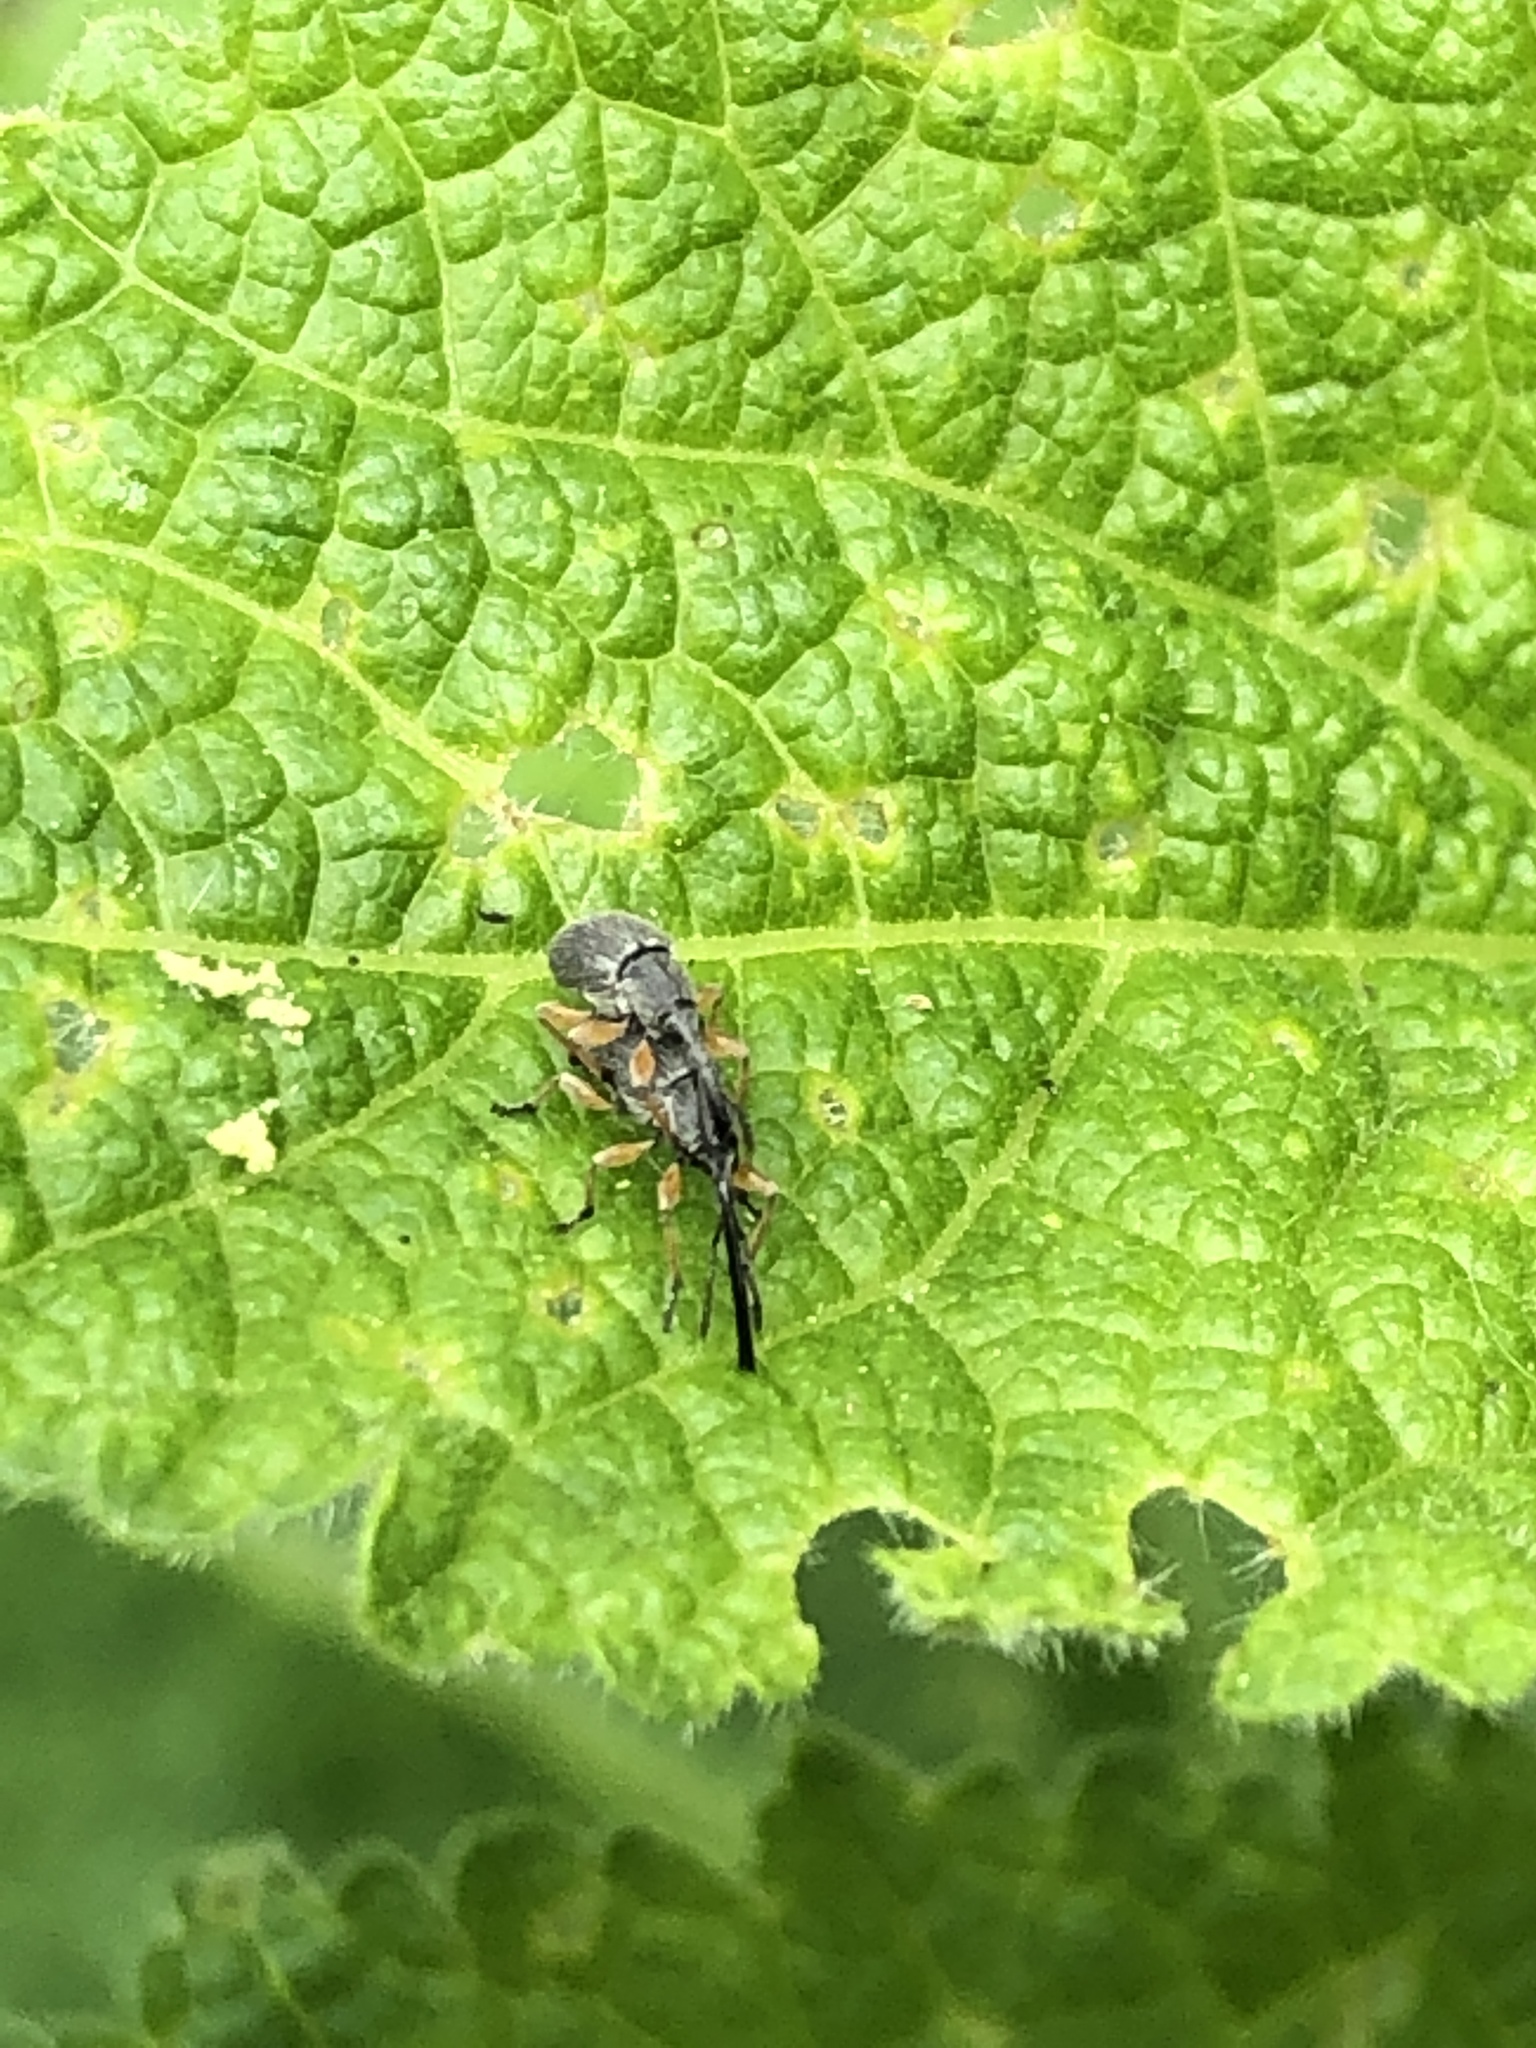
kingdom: Animalia
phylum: Arthropoda
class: Insecta
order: Coleoptera
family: Brentidae
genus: Rhopalapion
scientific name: Rhopalapion longirostre
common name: Hollyhock weevil
